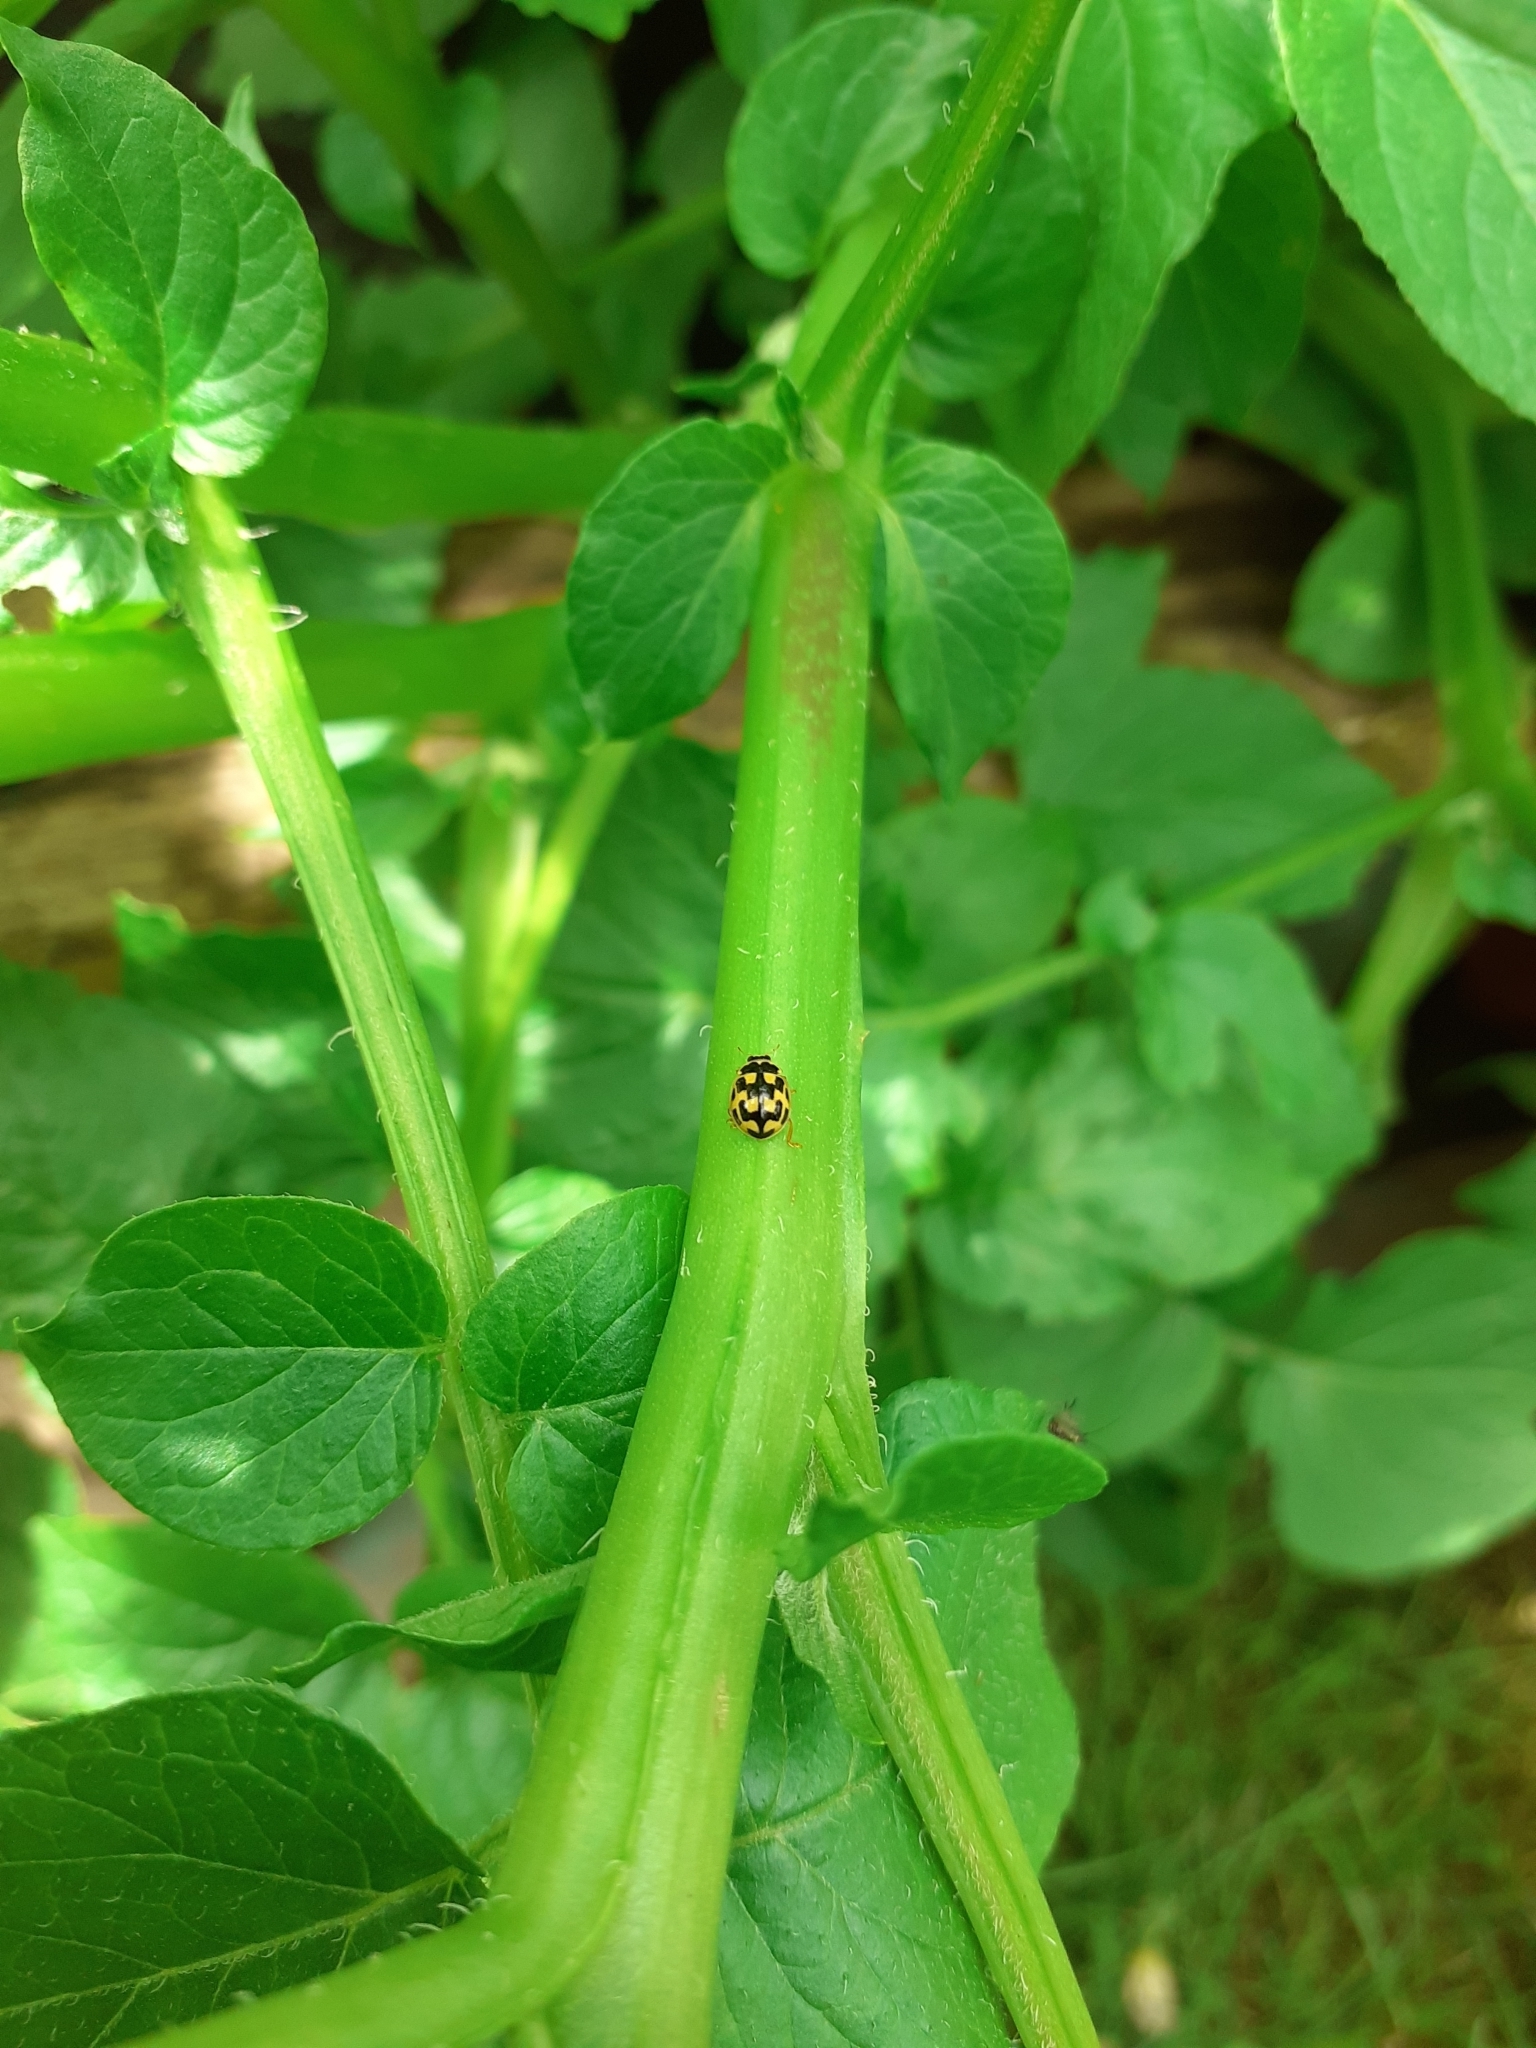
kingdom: Animalia
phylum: Arthropoda
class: Insecta
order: Coleoptera
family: Coccinellidae
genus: Propylaea
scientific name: Propylaea quatuordecimpunctata
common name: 14-spotted ladybird beetle
